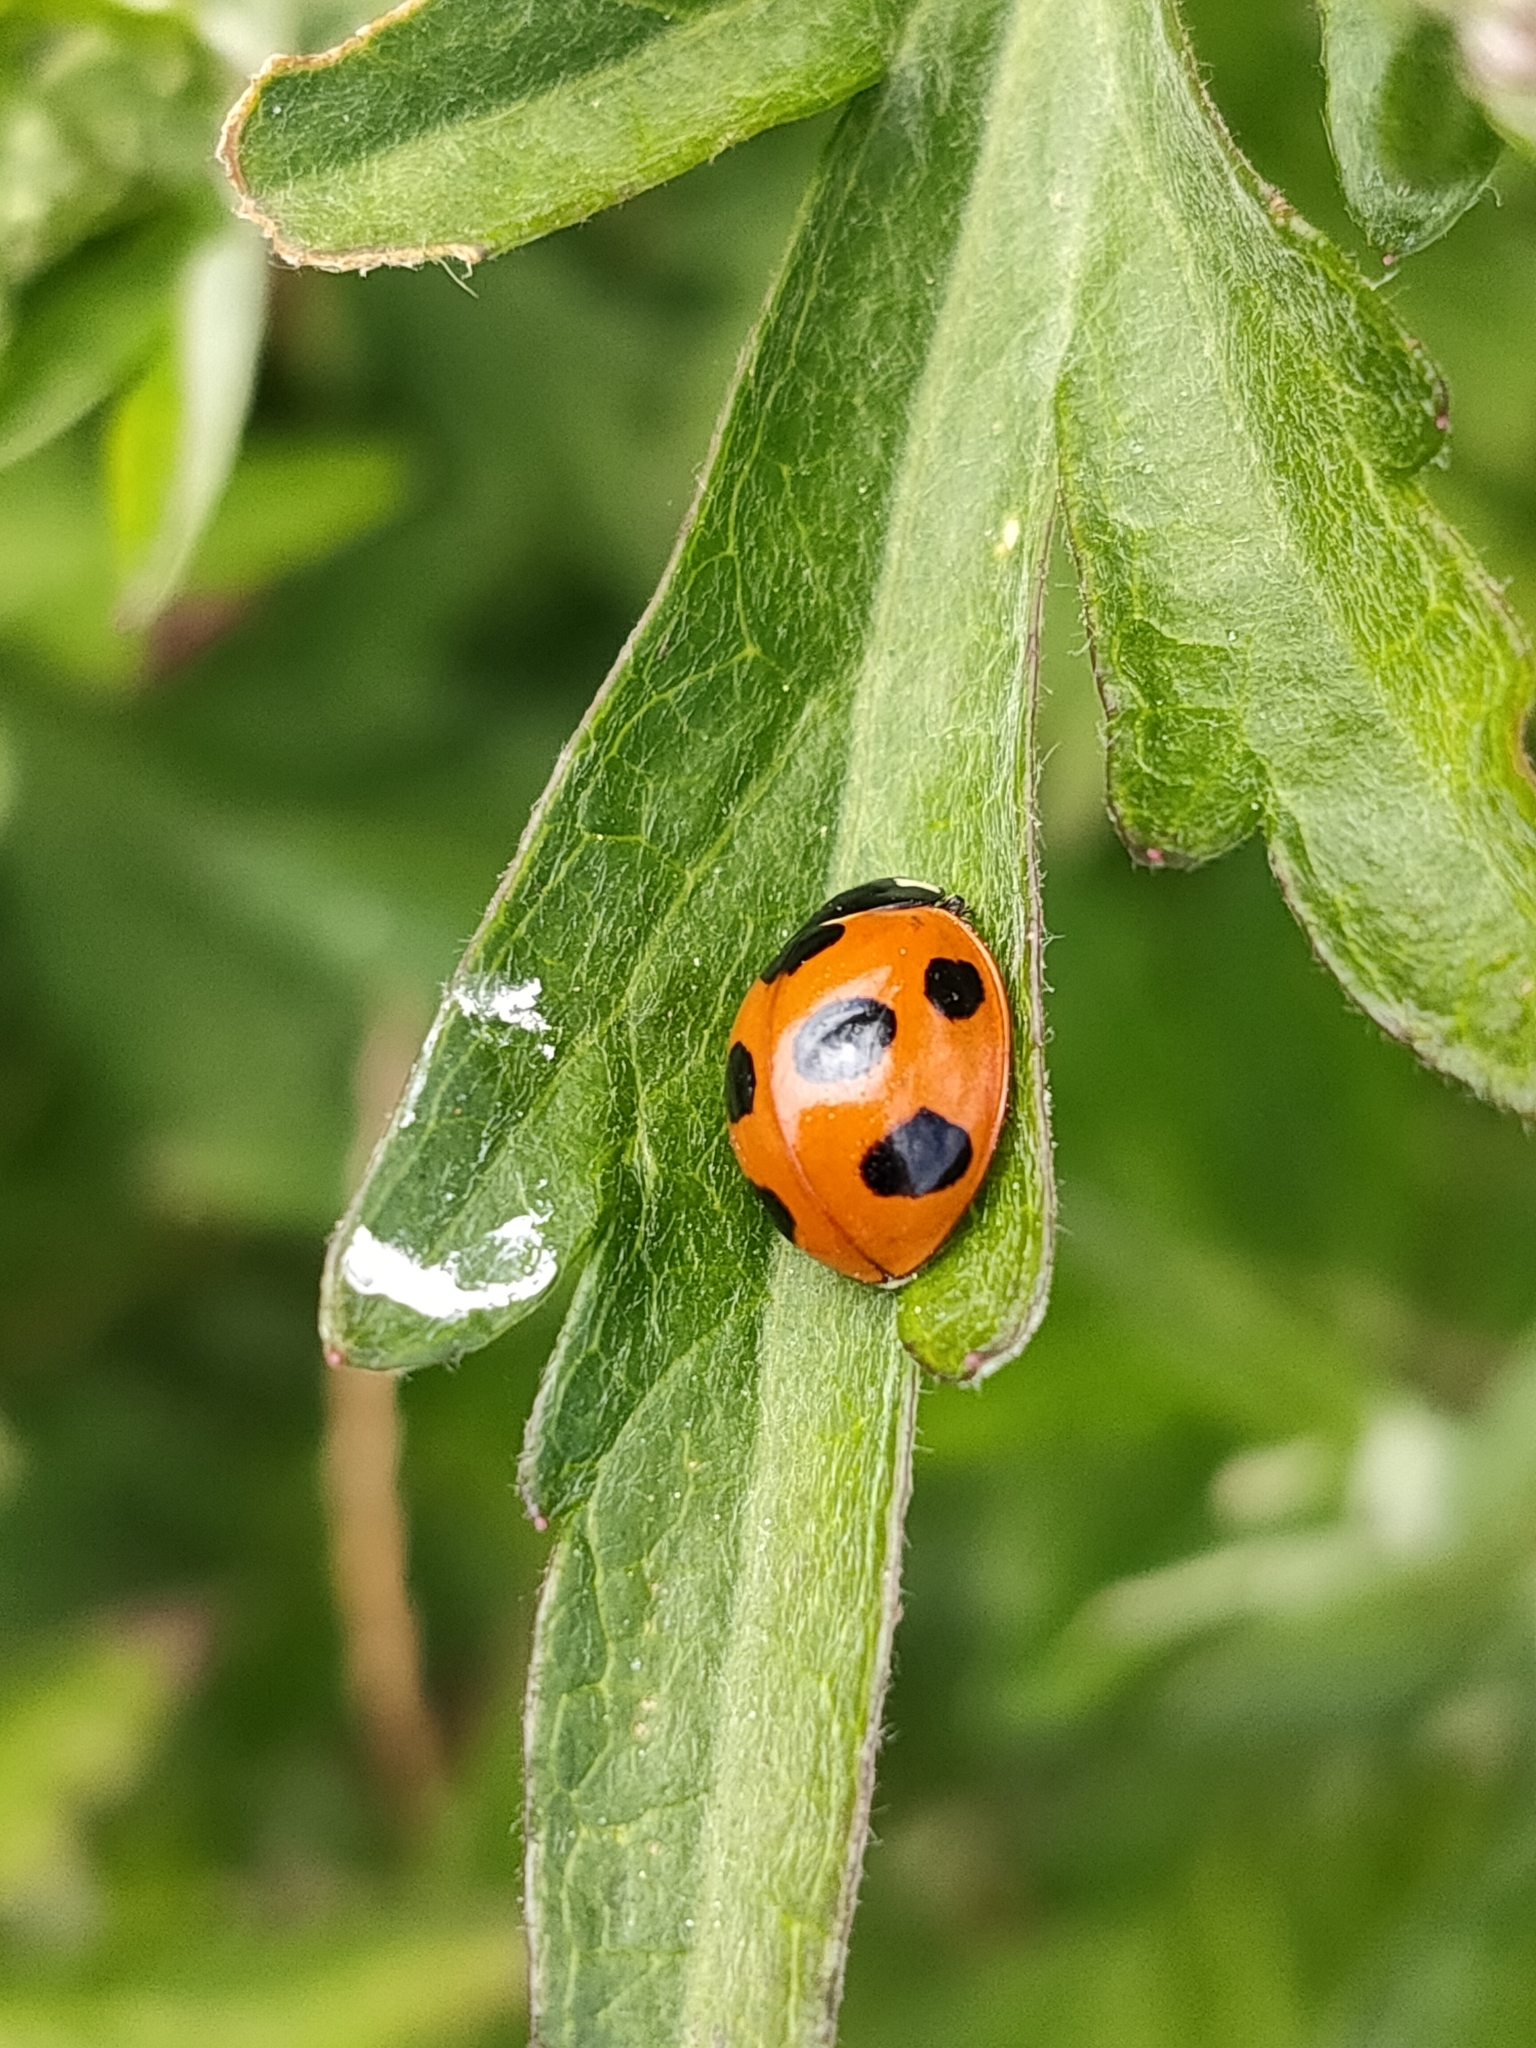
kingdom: Animalia
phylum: Arthropoda
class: Insecta
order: Coleoptera
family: Coccinellidae
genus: Coccinella
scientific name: Coccinella septempunctata
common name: Sevenspotted lady beetle
